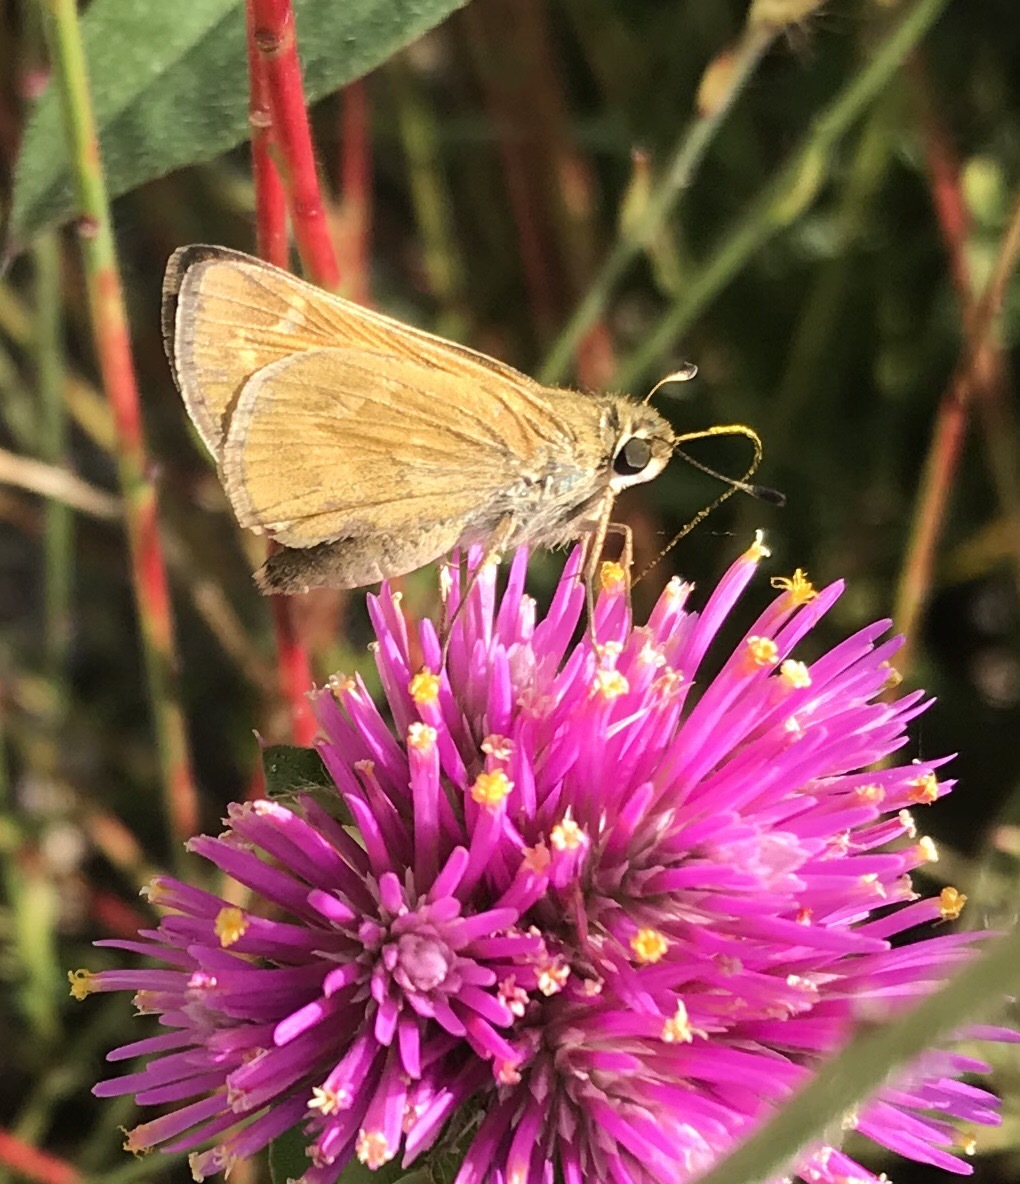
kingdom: Animalia
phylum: Arthropoda
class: Insecta
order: Lepidoptera
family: Hesperiidae
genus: Atalopedes
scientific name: Atalopedes
